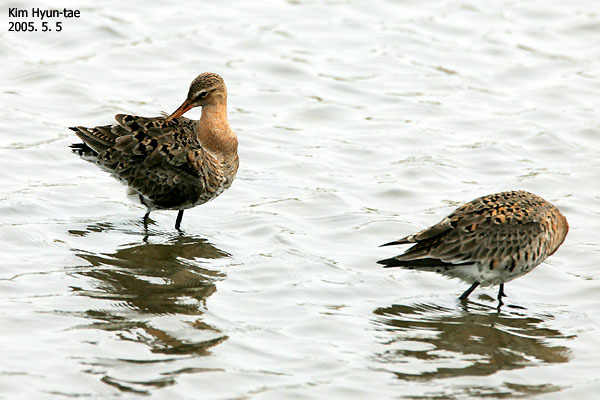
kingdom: Animalia
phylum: Chordata
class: Aves
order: Charadriiformes
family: Scolopacidae
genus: Limosa
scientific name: Limosa limosa
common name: Black-tailed godwit
